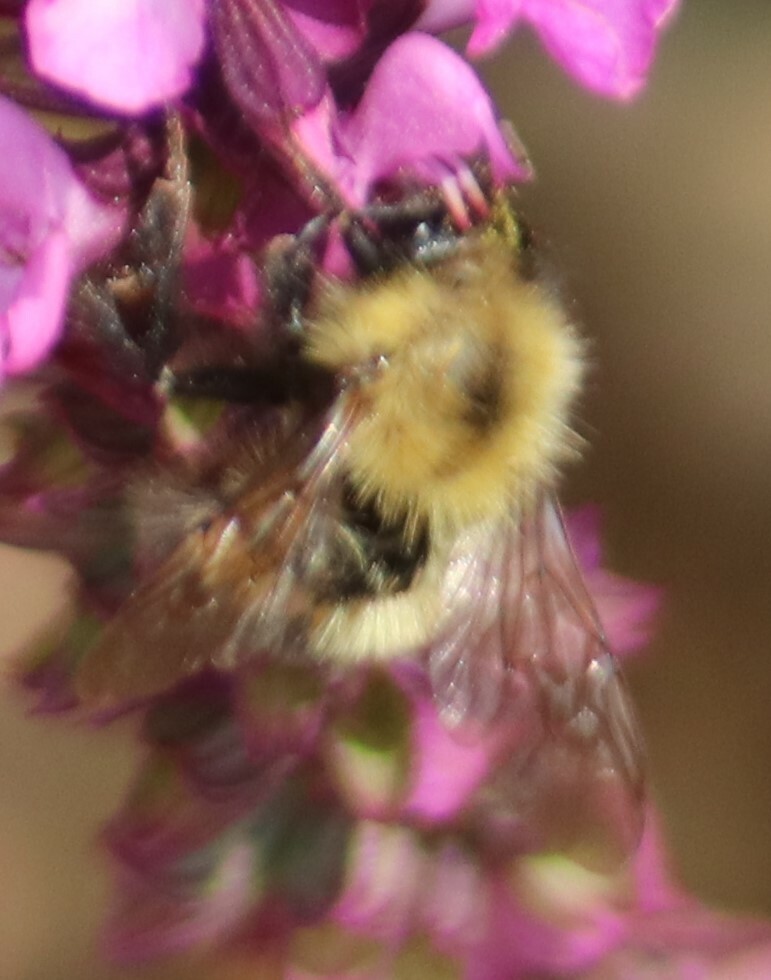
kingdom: Animalia
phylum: Arthropoda
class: Insecta
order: Hymenoptera
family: Apidae
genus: Bombus
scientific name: Bombus perplexus
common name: Confusing bumble bee
